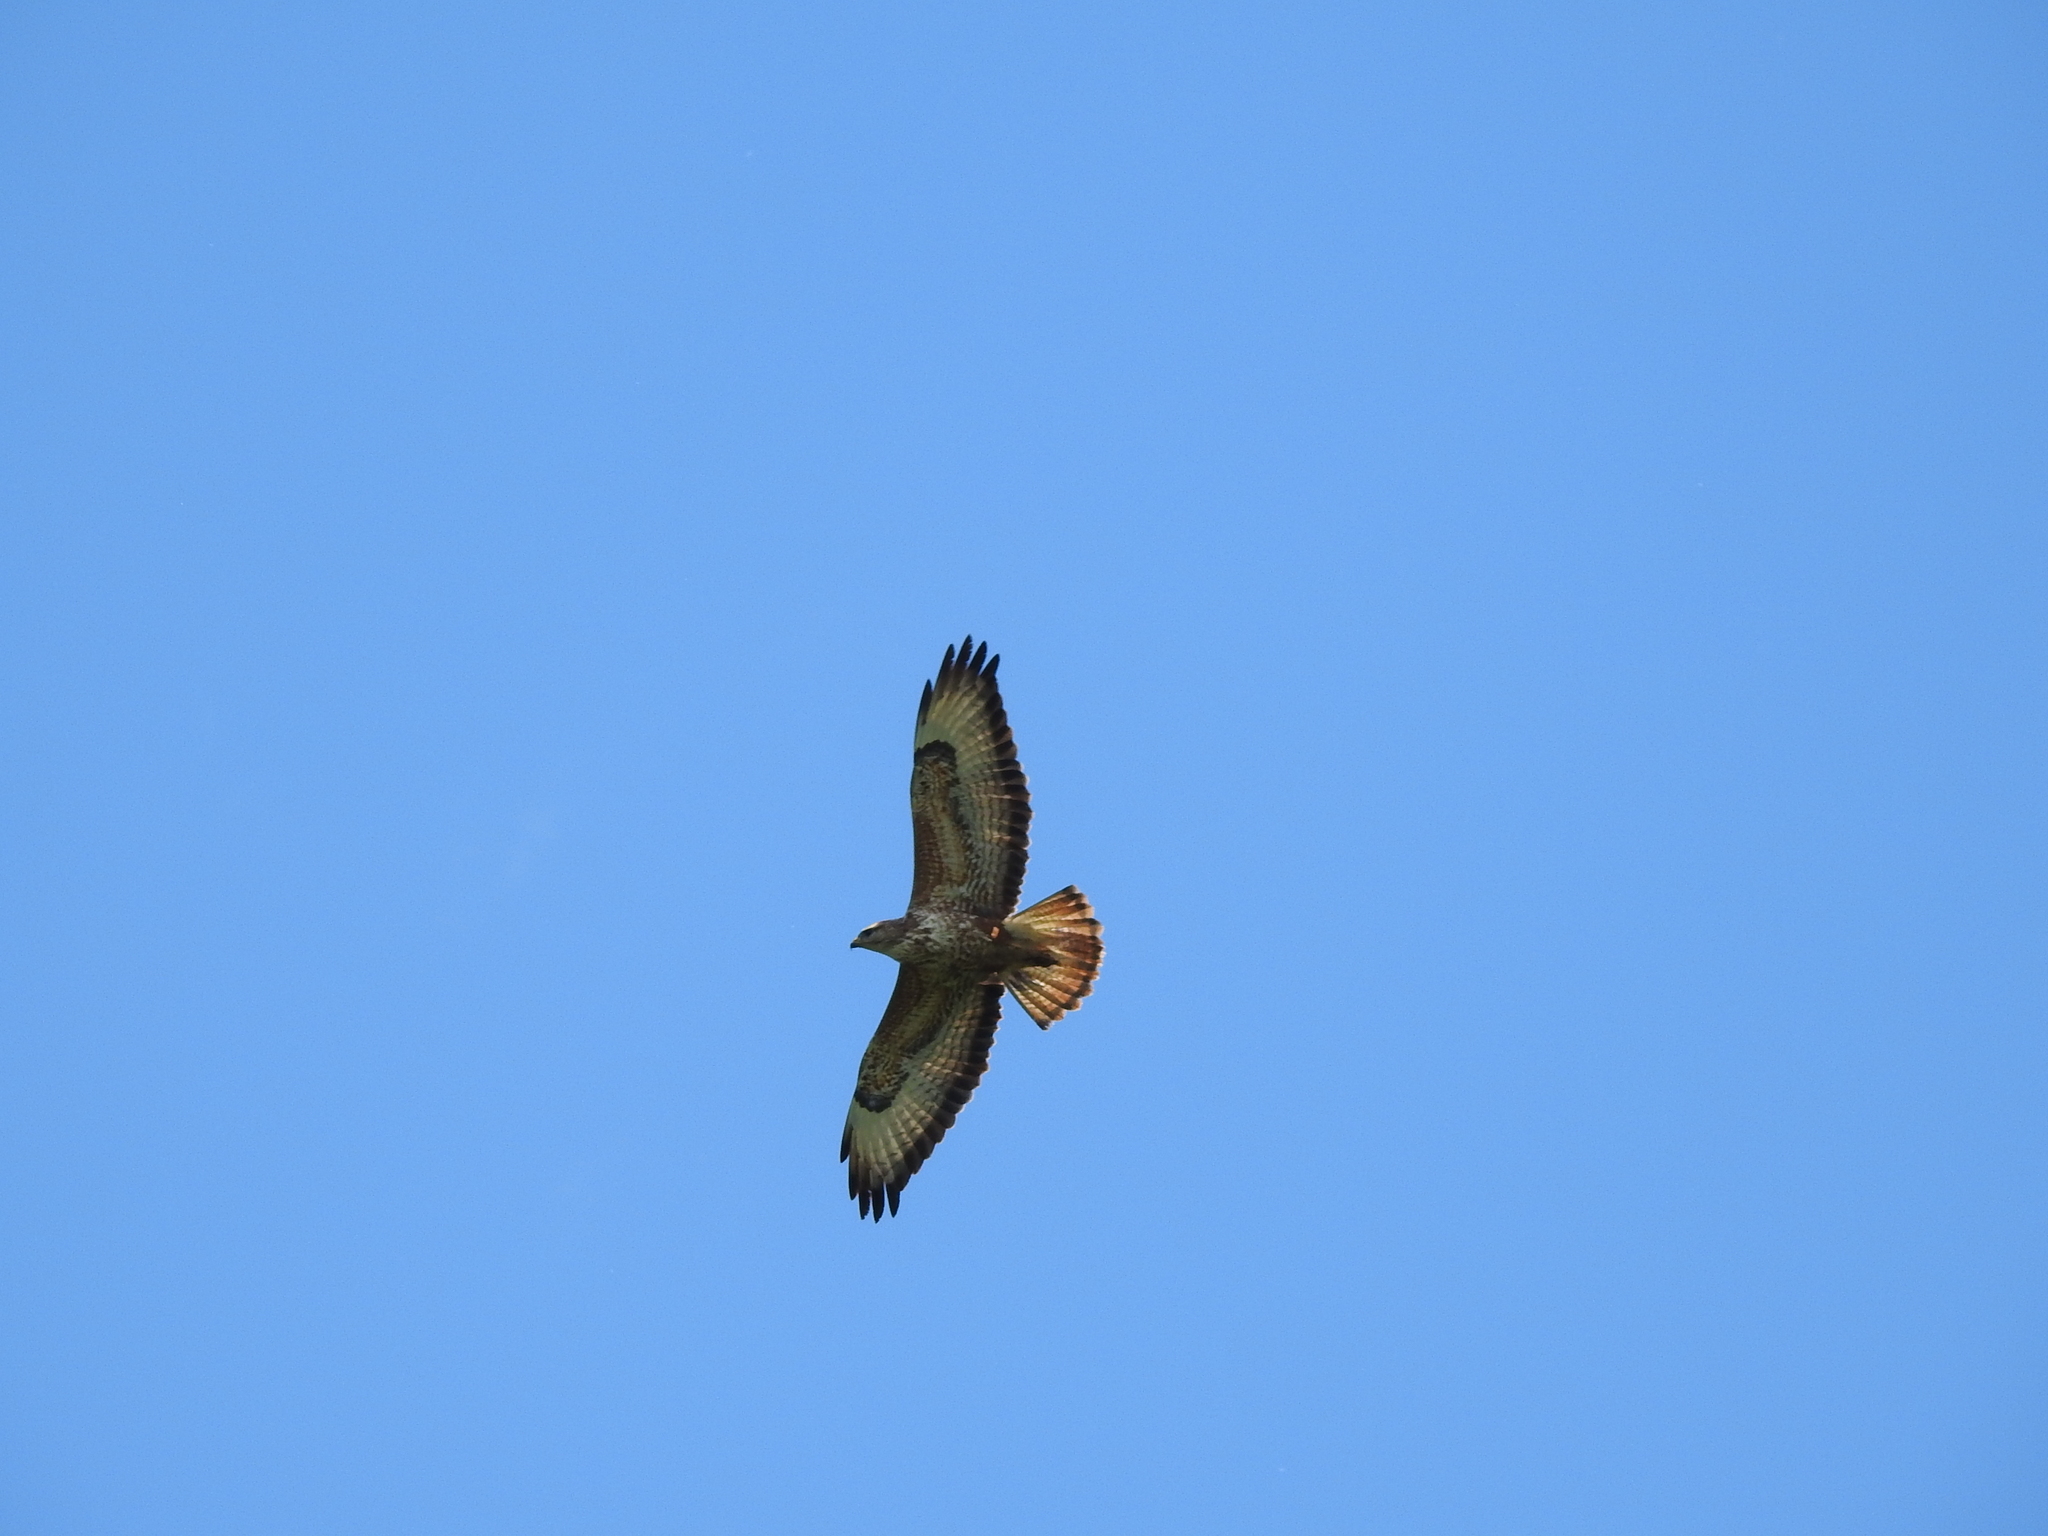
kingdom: Animalia
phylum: Chordata
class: Aves
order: Accipitriformes
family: Accipitridae
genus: Buteo
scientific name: Buteo buteo
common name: Common buzzard
